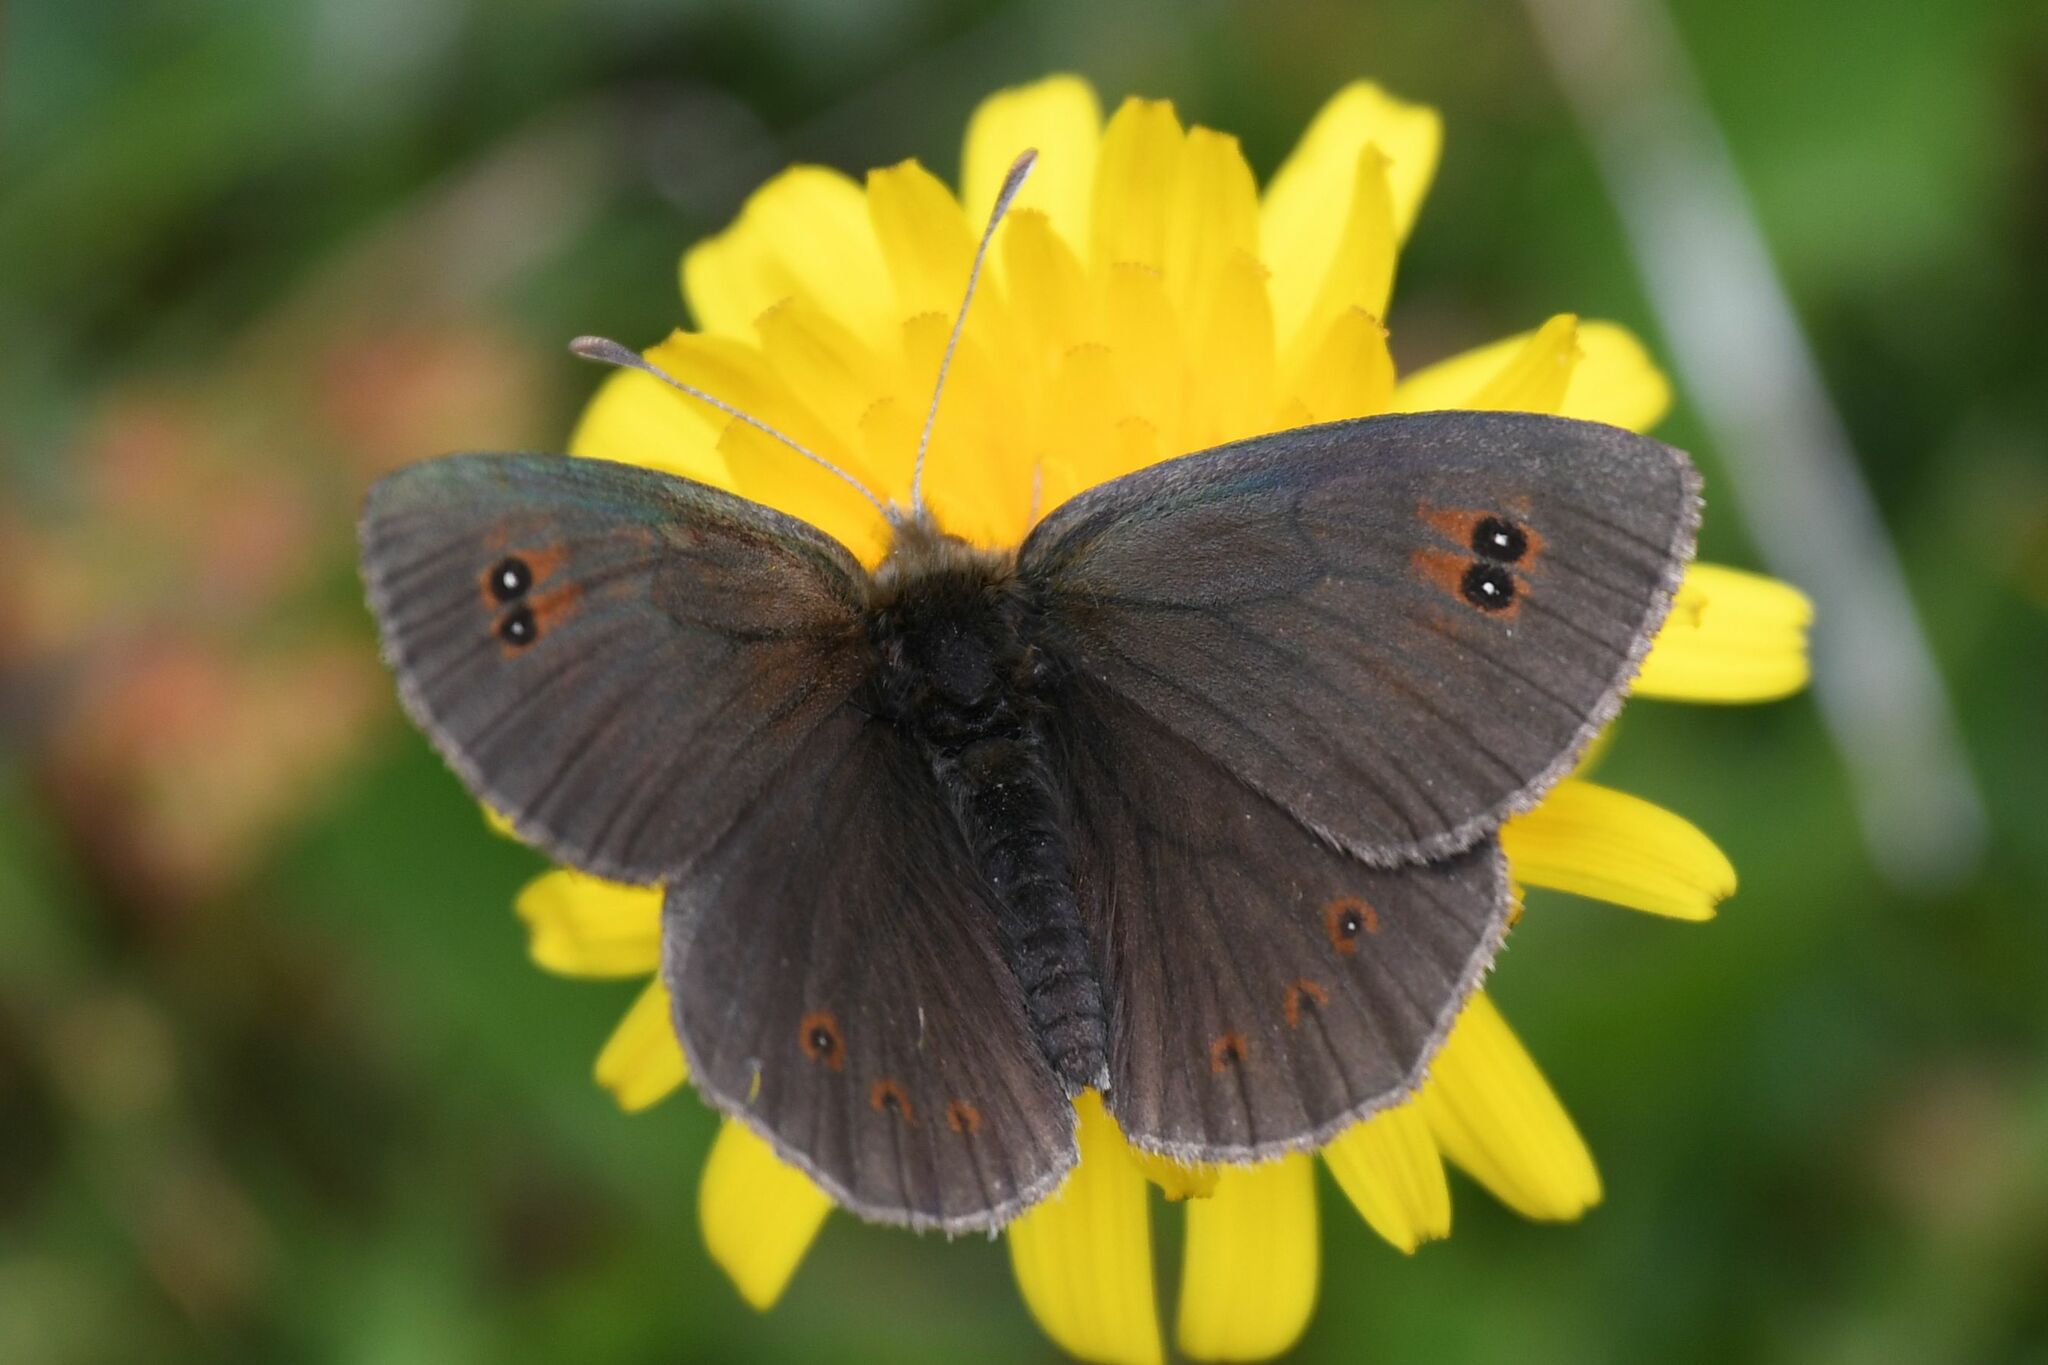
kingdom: Animalia
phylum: Arthropoda
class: Insecta
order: Lepidoptera
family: Nymphalidae
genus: Erebia
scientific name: Erebia cassioides
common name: Common brassy ringlet
